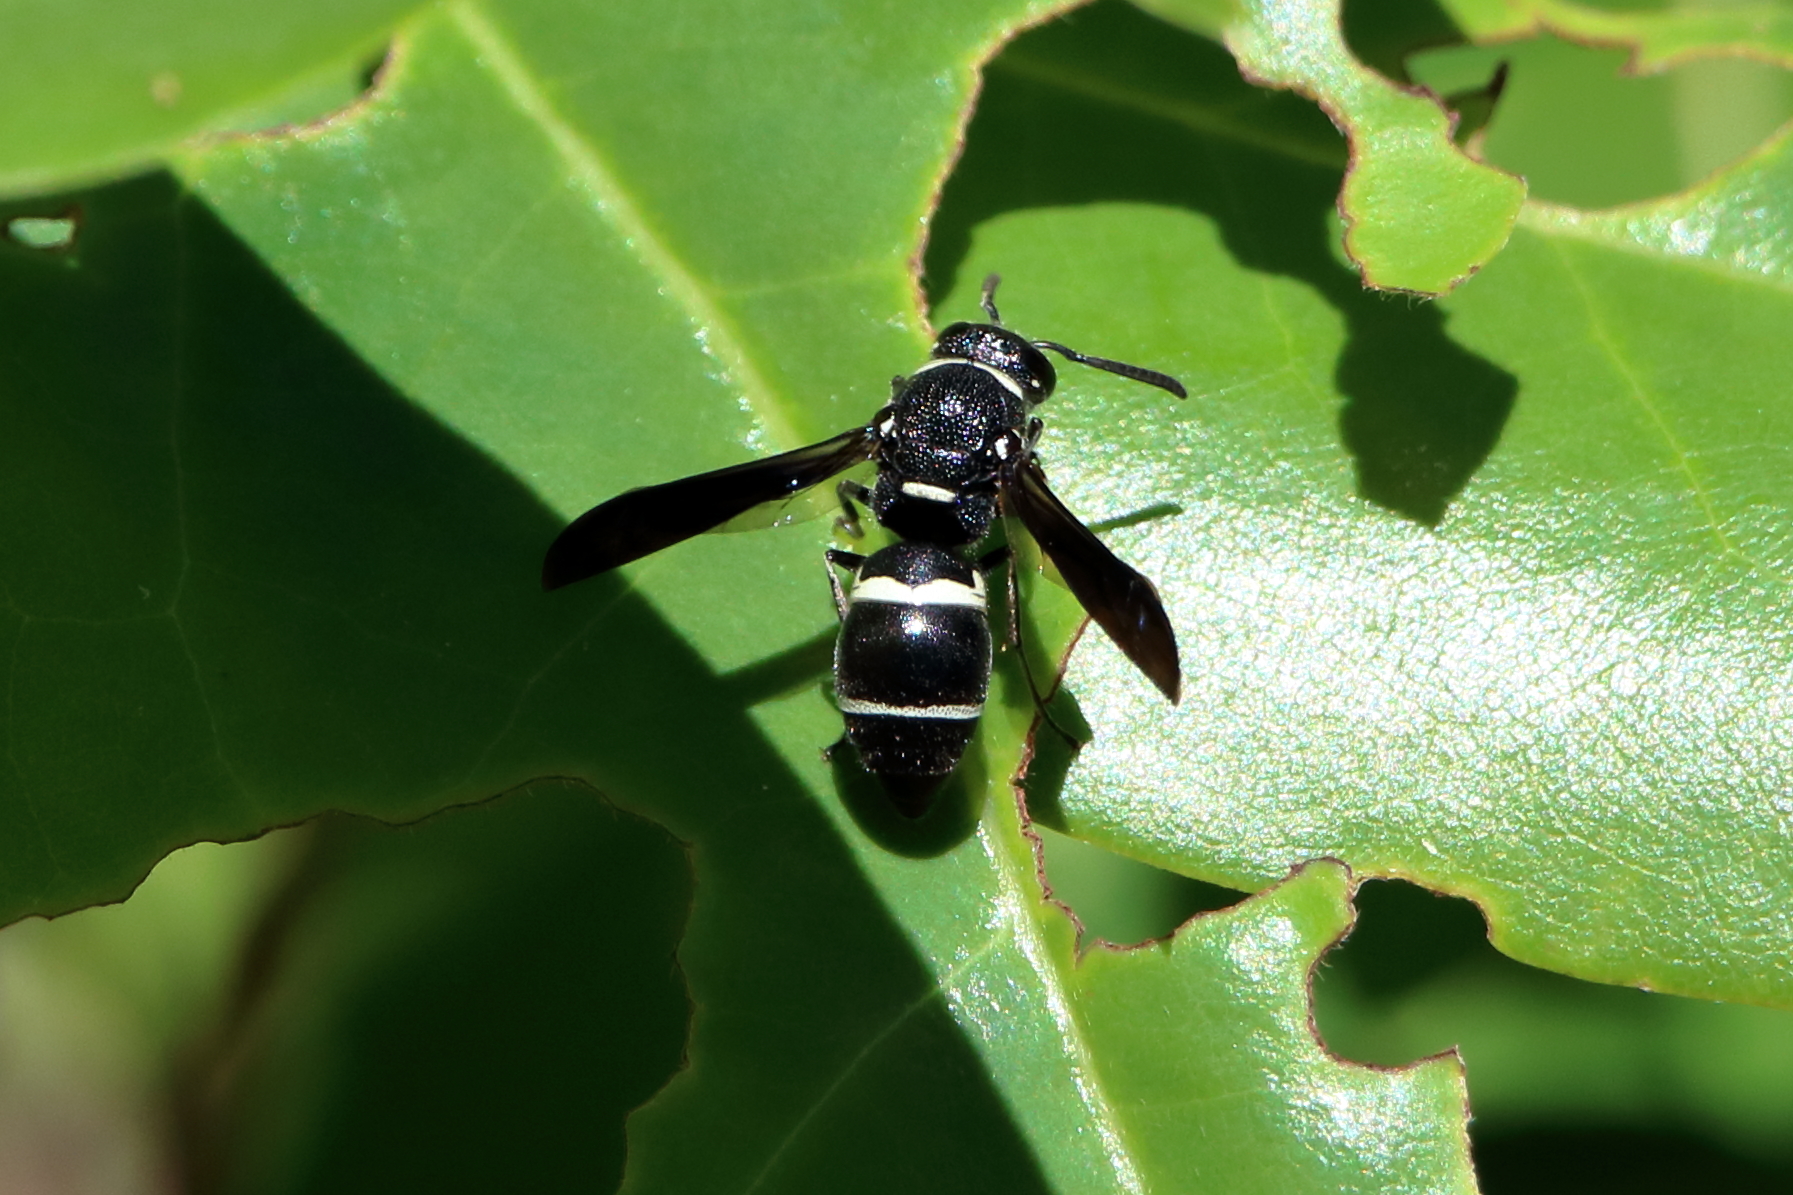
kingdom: Animalia
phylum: Arthropoda
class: Insecta
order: Hymenoptera
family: Eumenidae
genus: Euodynerus
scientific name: Euodynerus megaera
